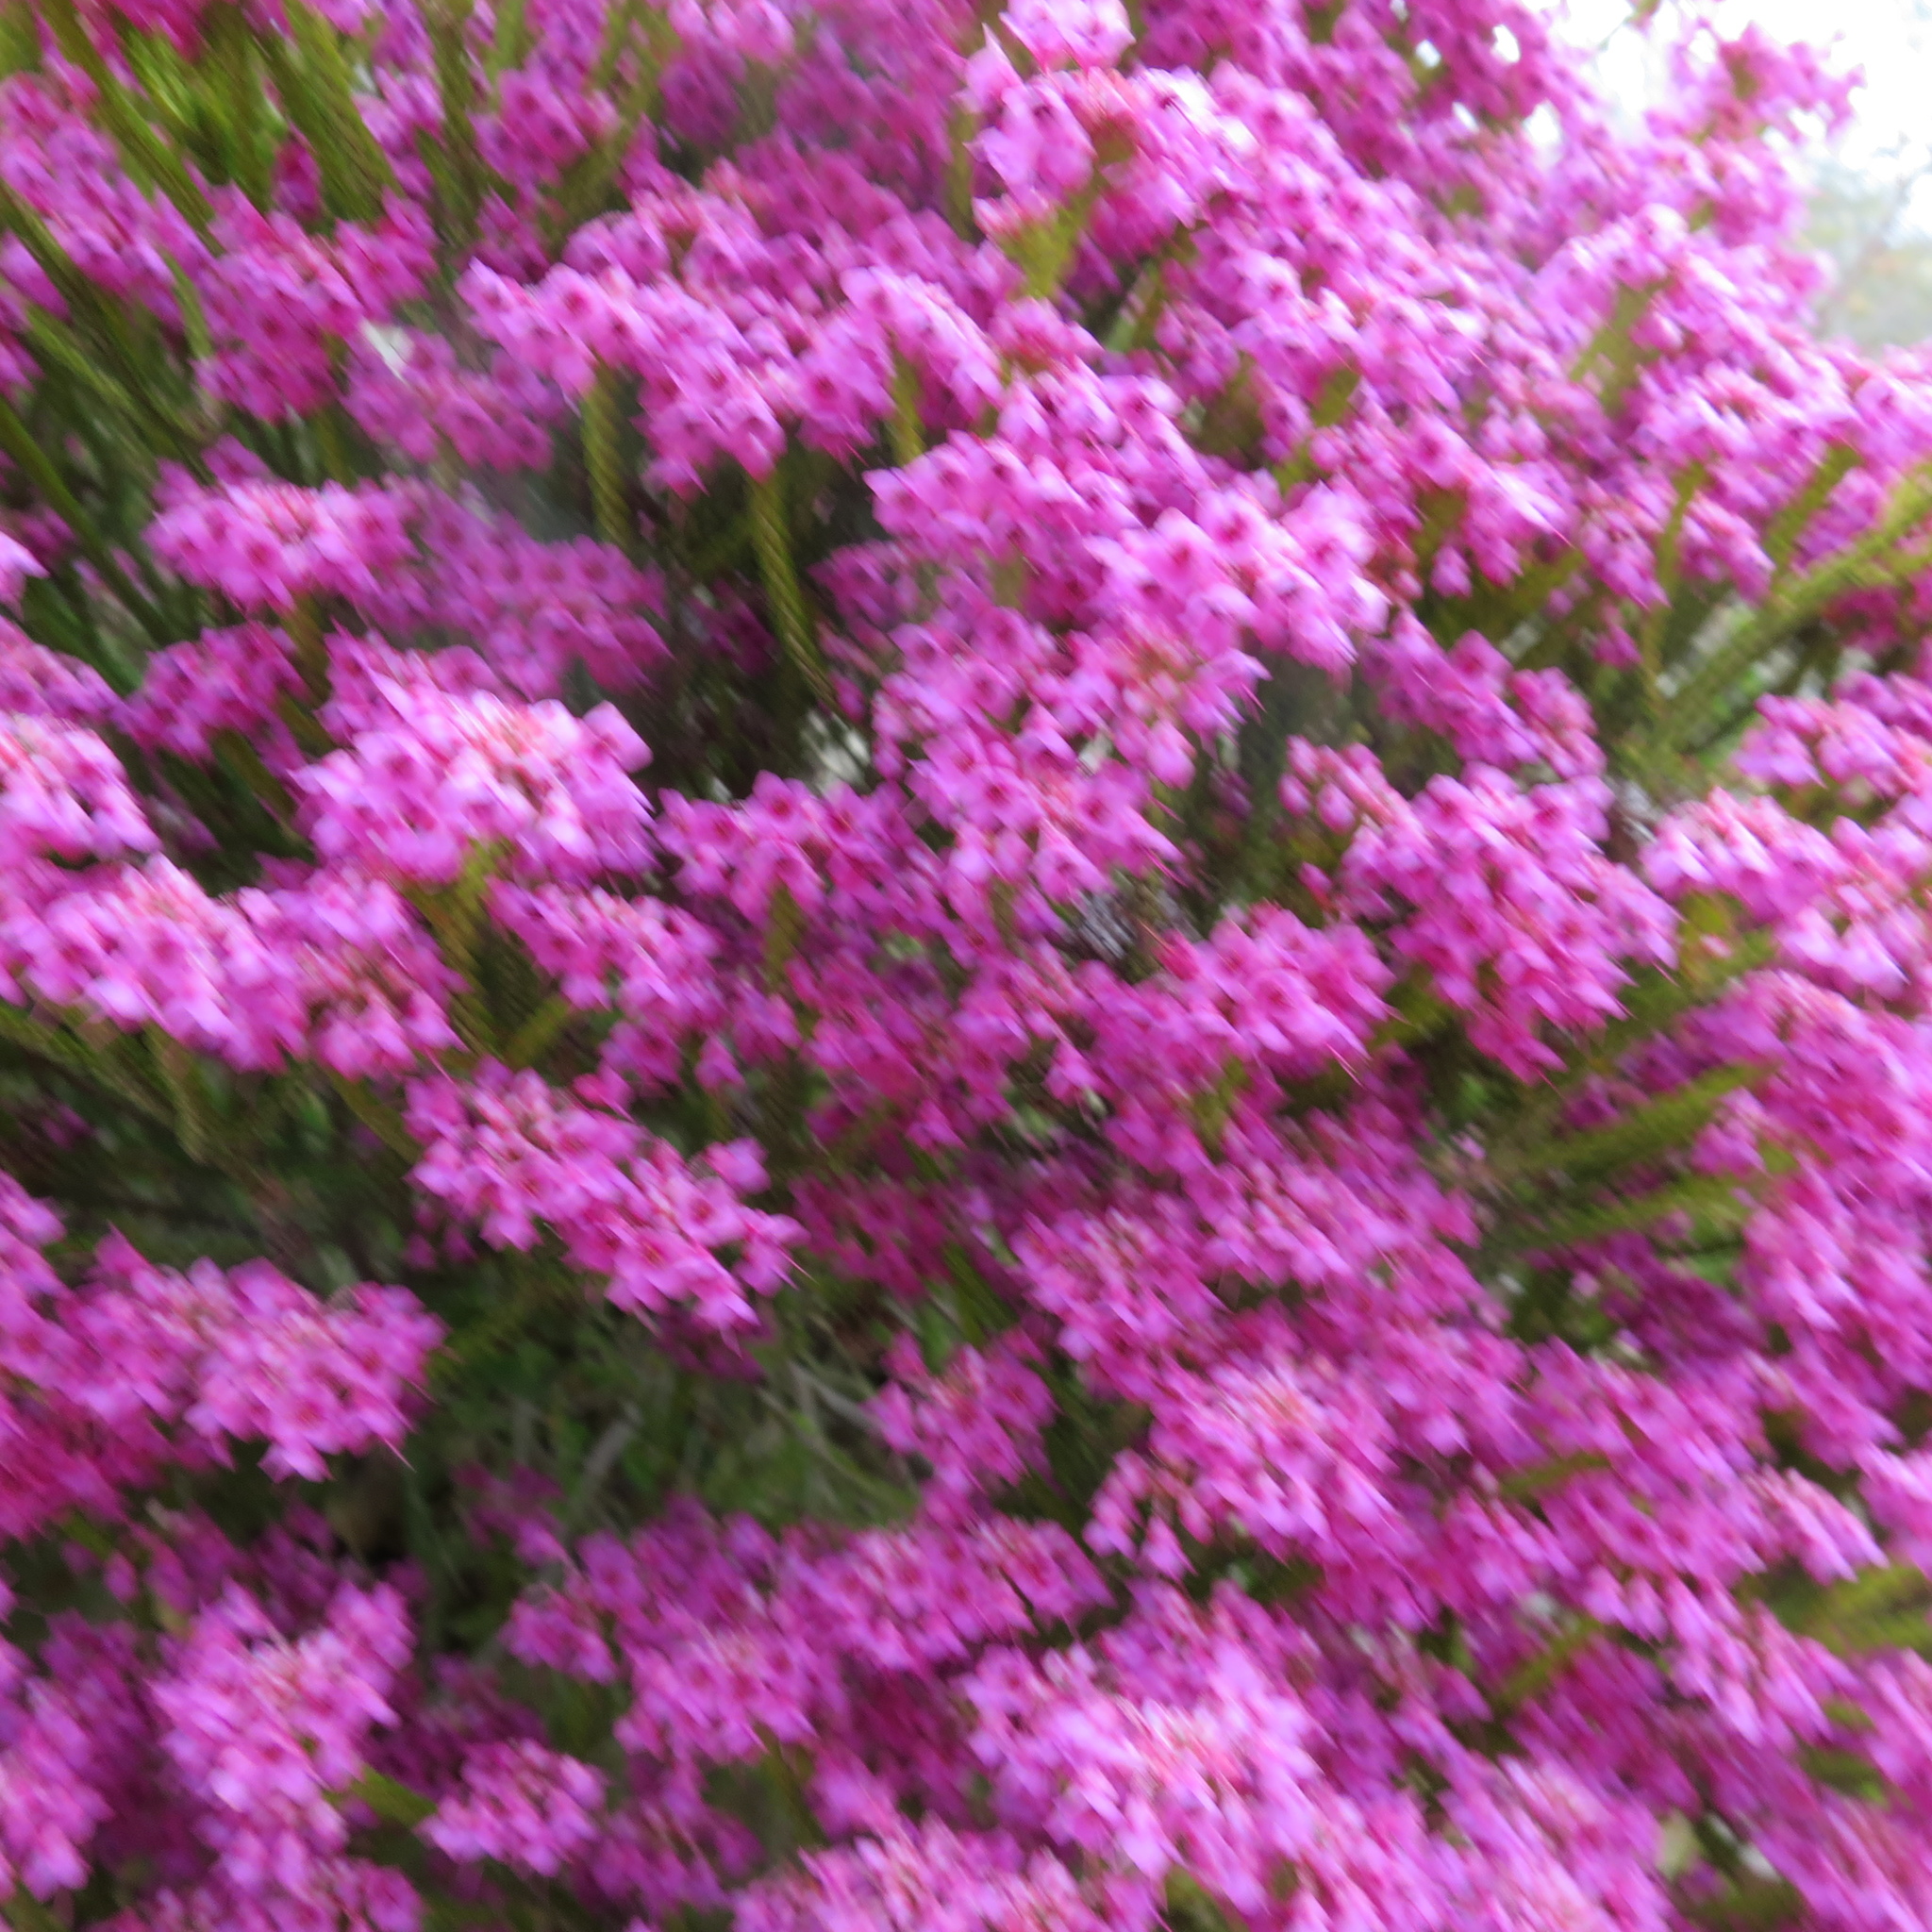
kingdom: Plantae
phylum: Tracheophyta
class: Magnoliopsida
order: Ericales
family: Ericaceae
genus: Erica
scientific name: Erica seriphiifolia
